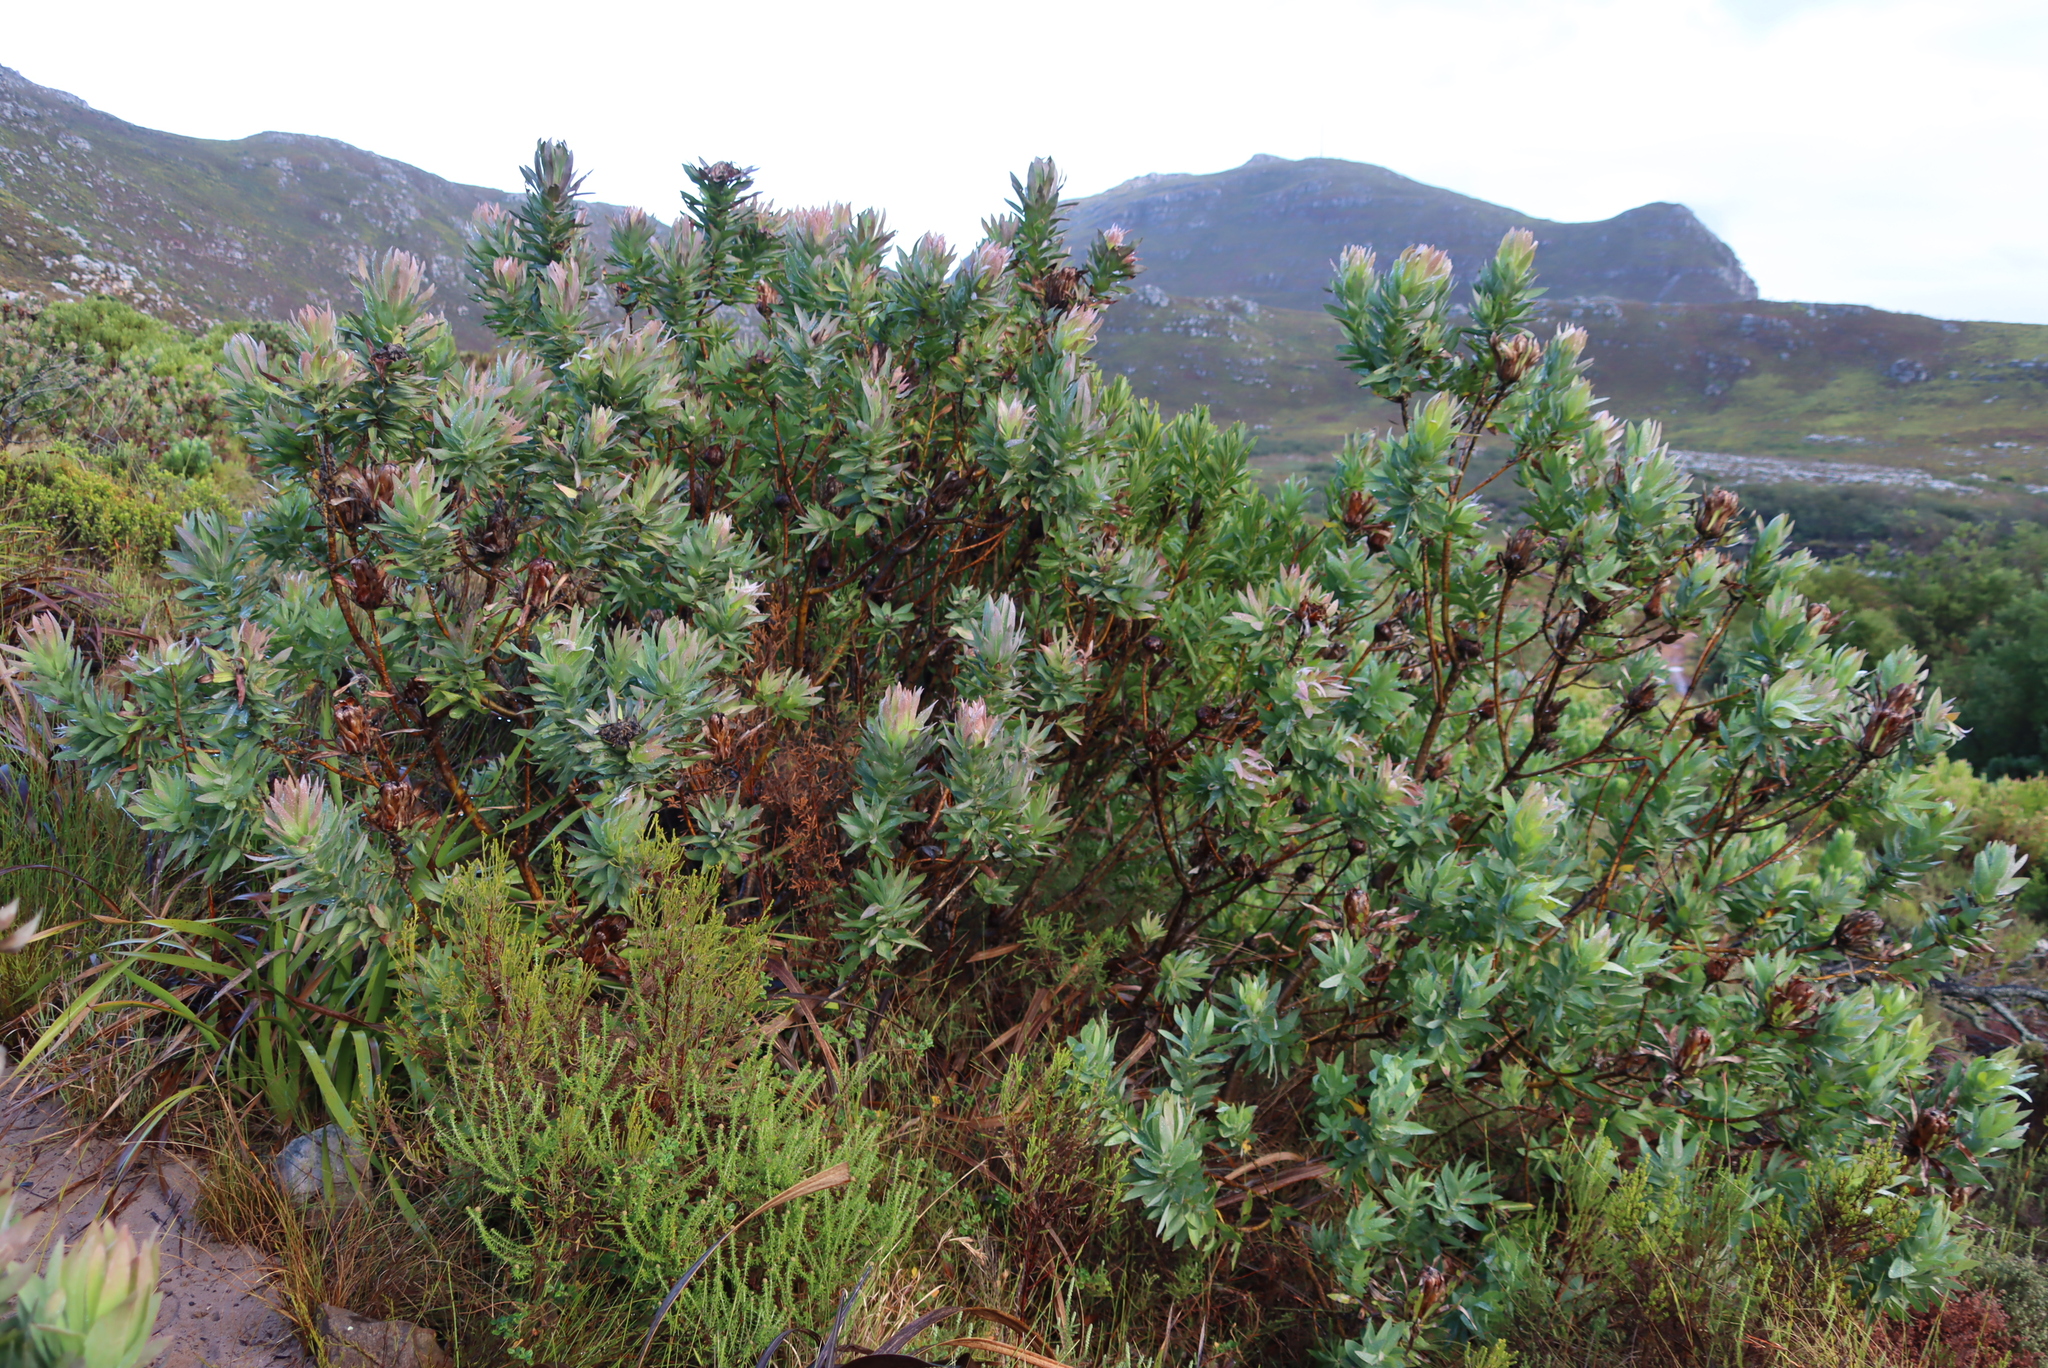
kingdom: Plantae
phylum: Tracheophyta
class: Magnoliopsida
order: Proteales
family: Proteaceae
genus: Protea
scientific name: Protea coronata
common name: Green sugarbush
